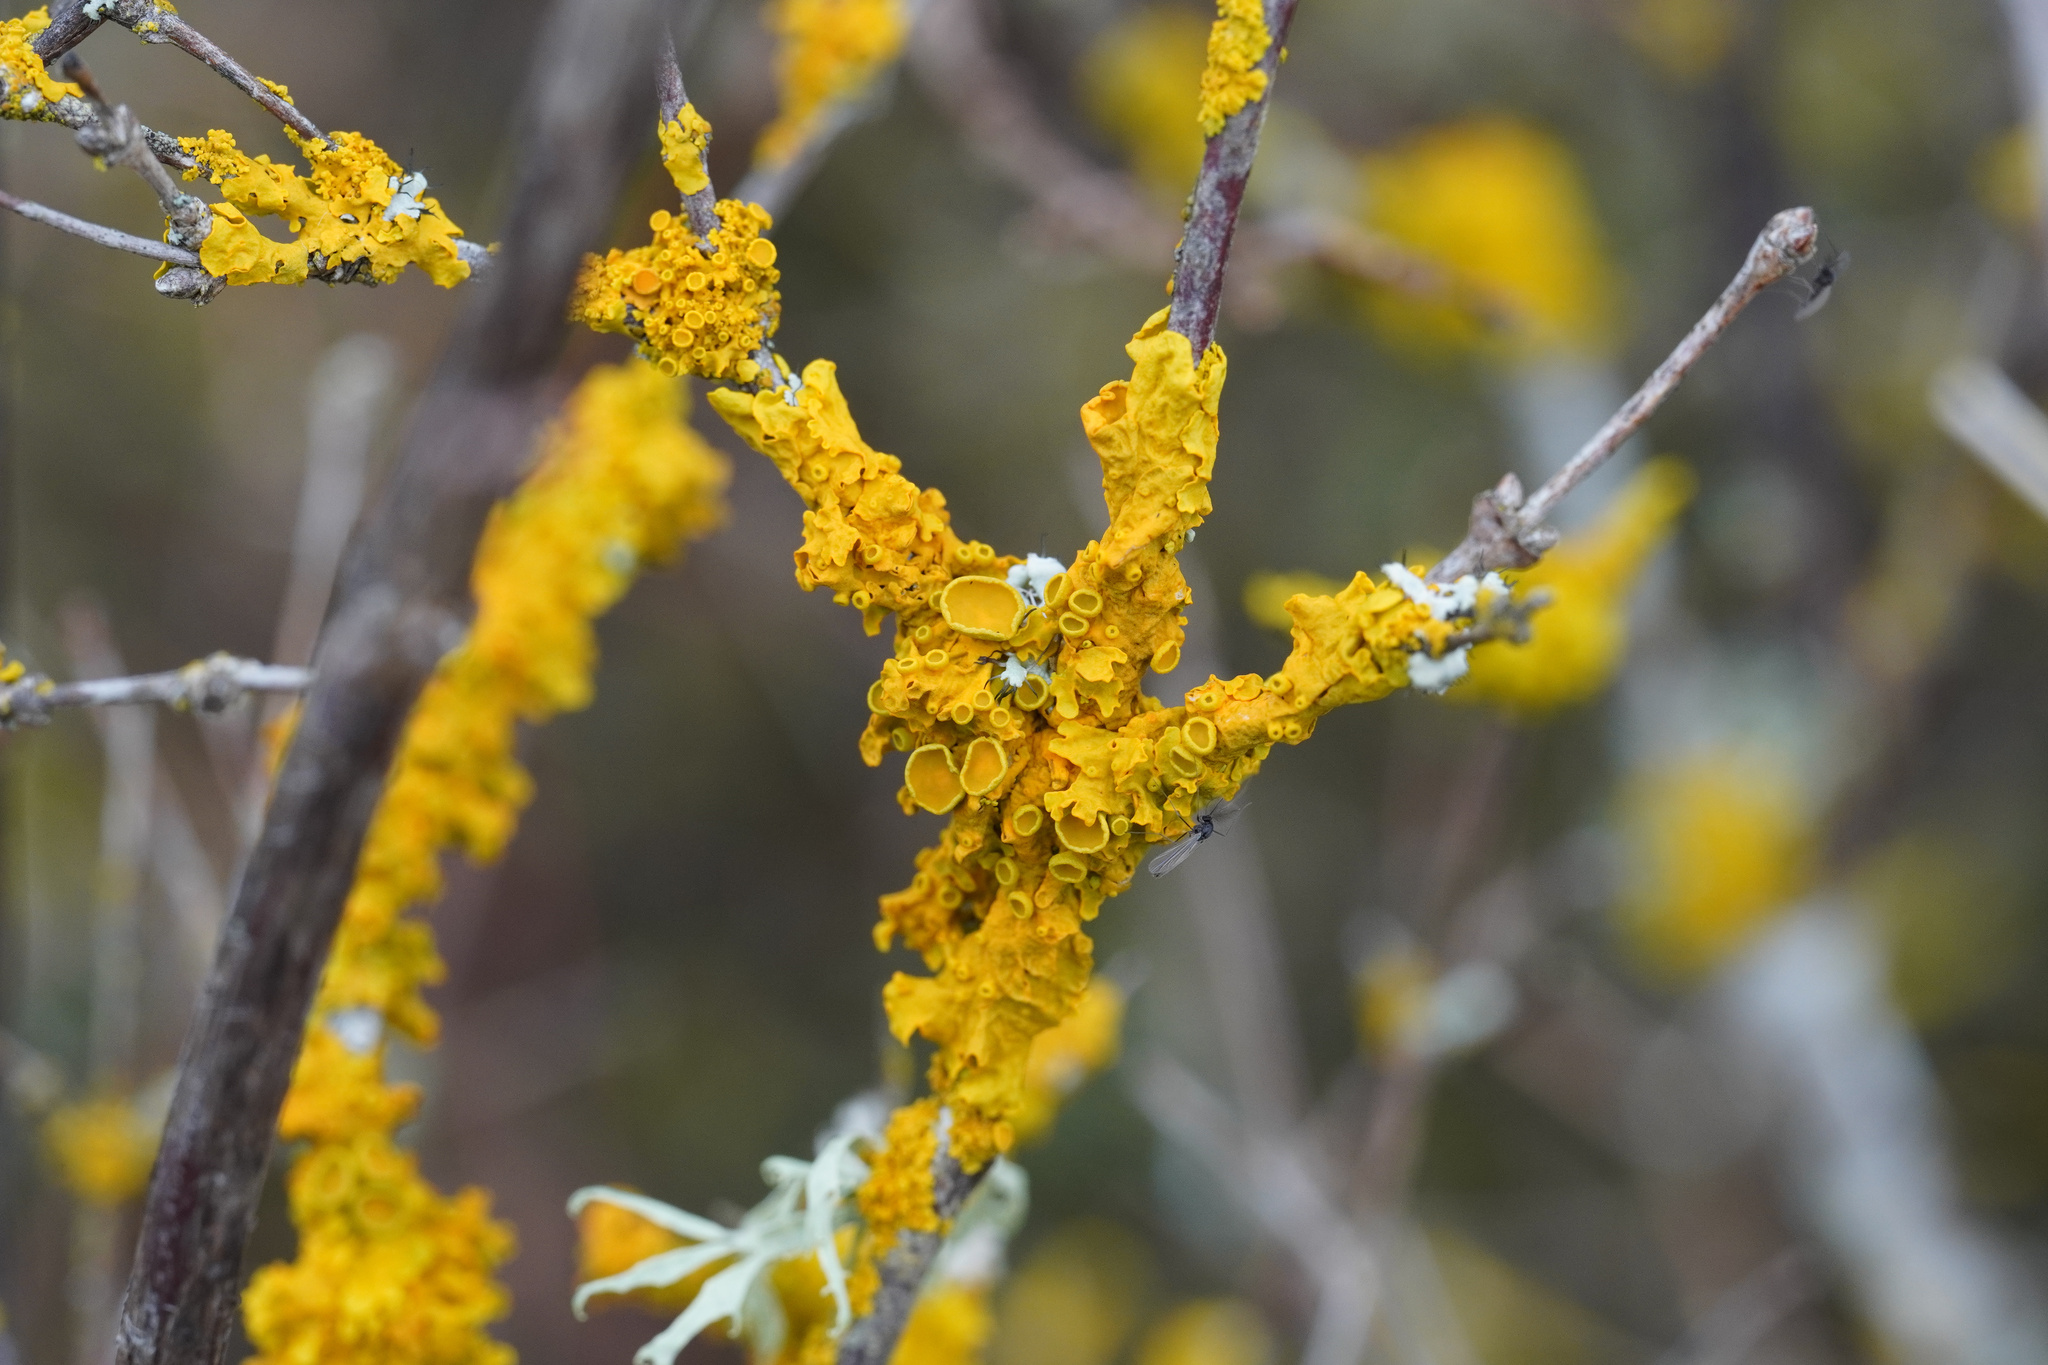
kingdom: Fungi
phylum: Ascomycota
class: Lecanoromycetes
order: Teloschistales
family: Teloschistaceae
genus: Xanthoria
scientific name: Xanthoria parietina
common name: Common orange lichen
